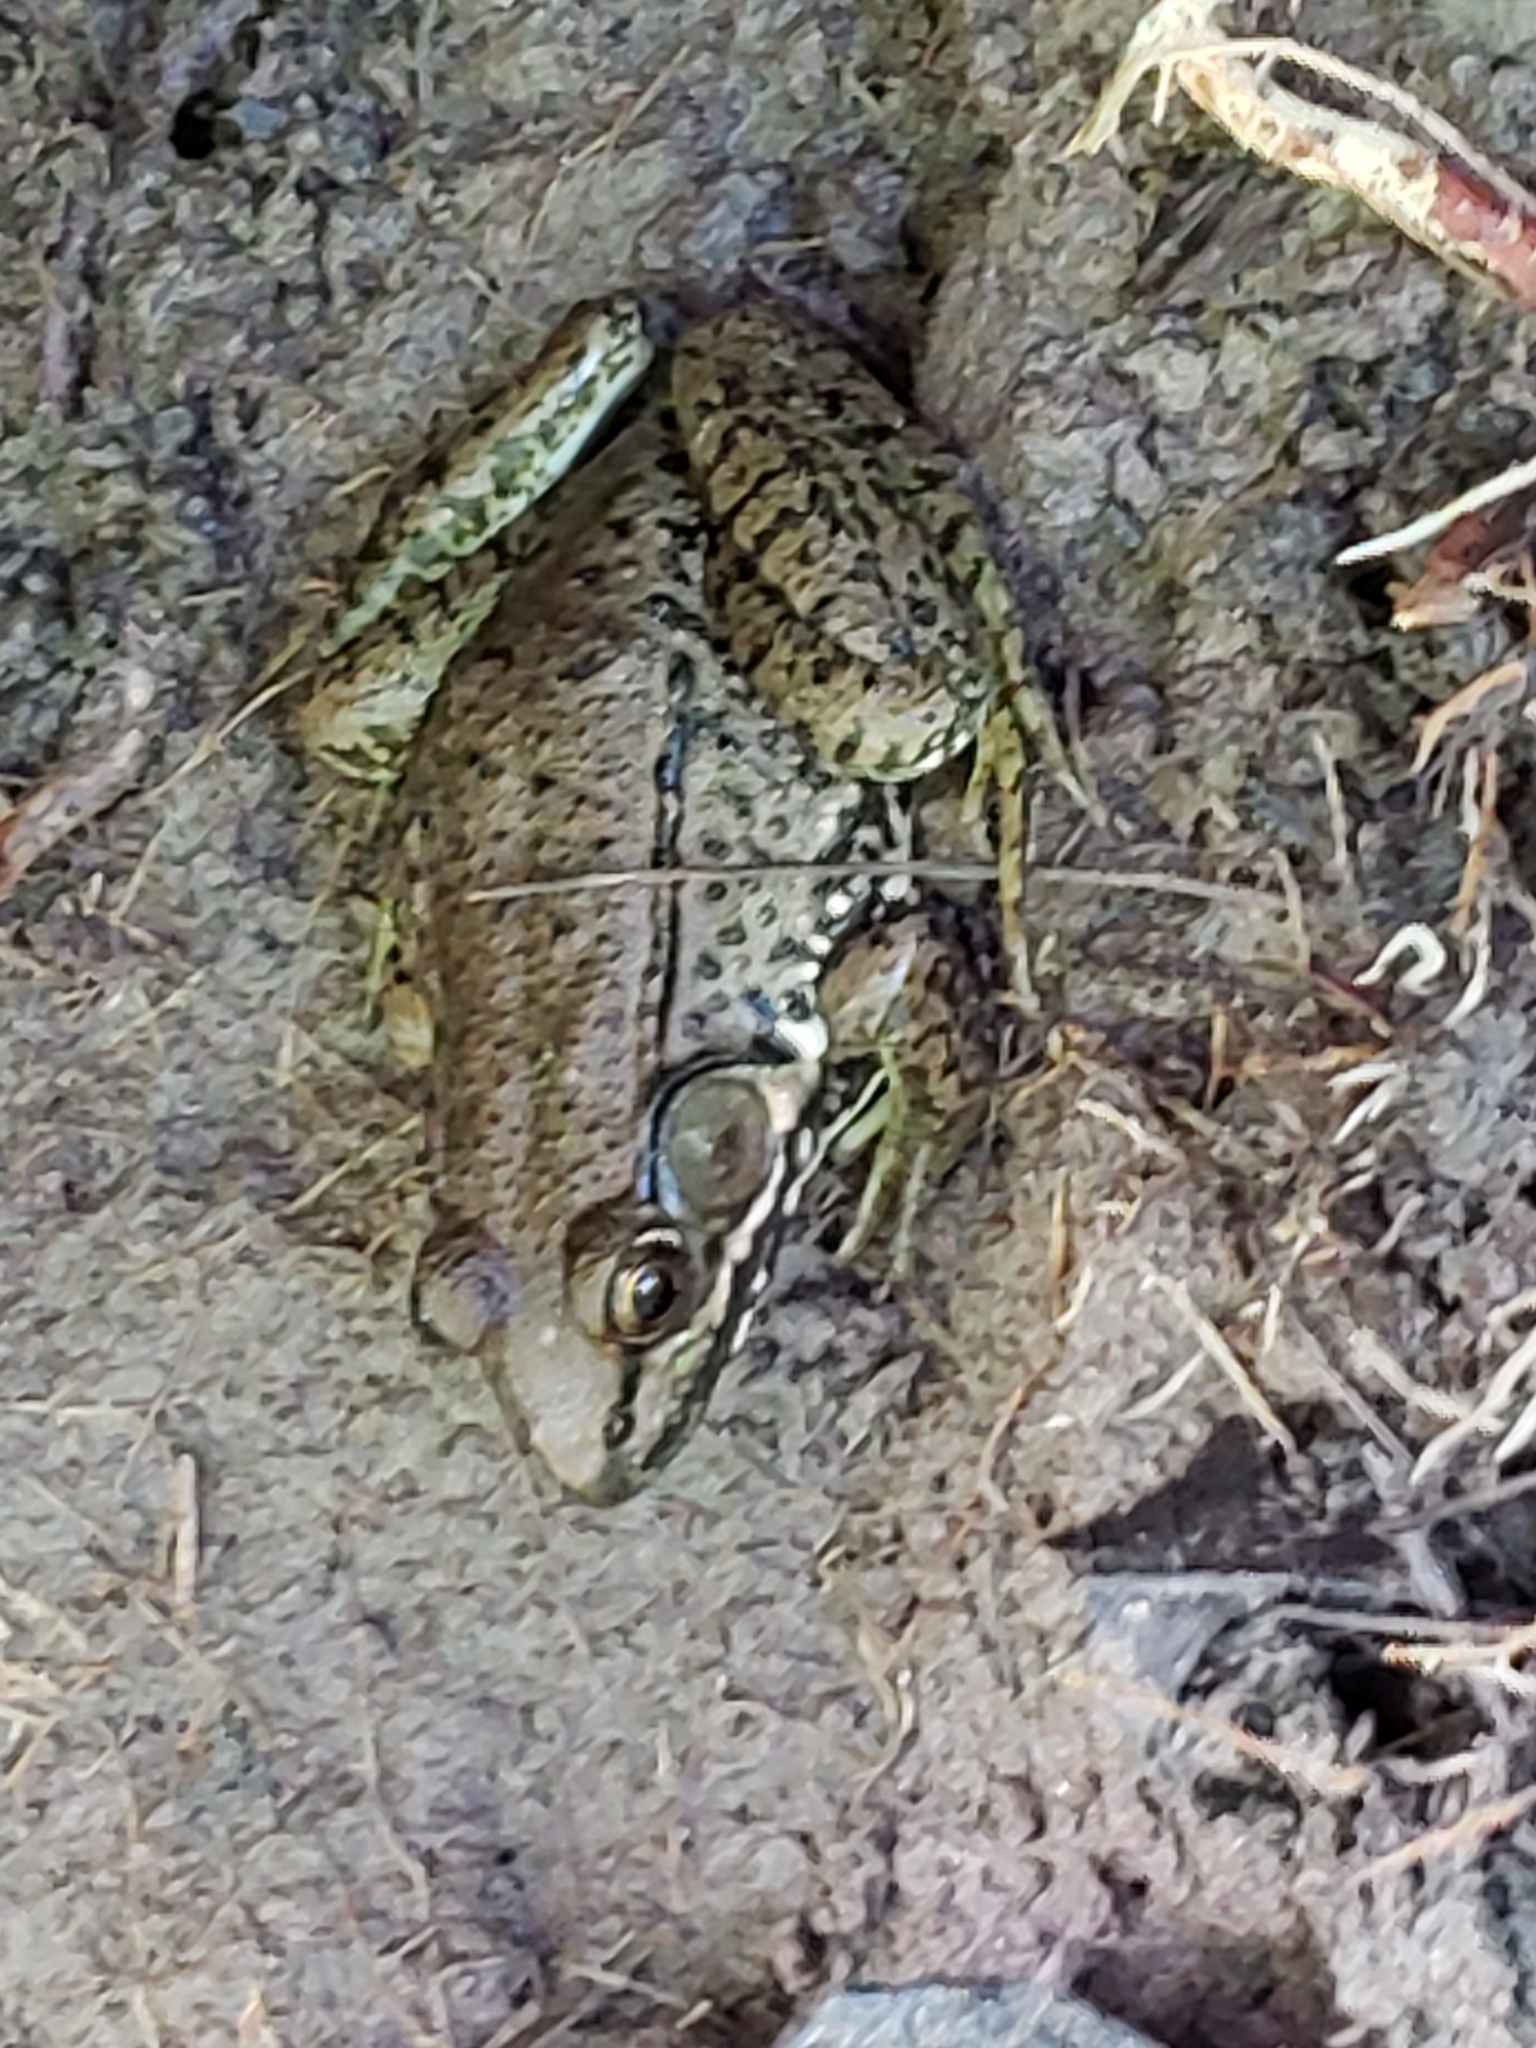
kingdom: Animalia
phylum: Chordata
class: Amphibia
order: Anura
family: Ranidae
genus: Lithobates
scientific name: Lithobates clamitans
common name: Green frog
